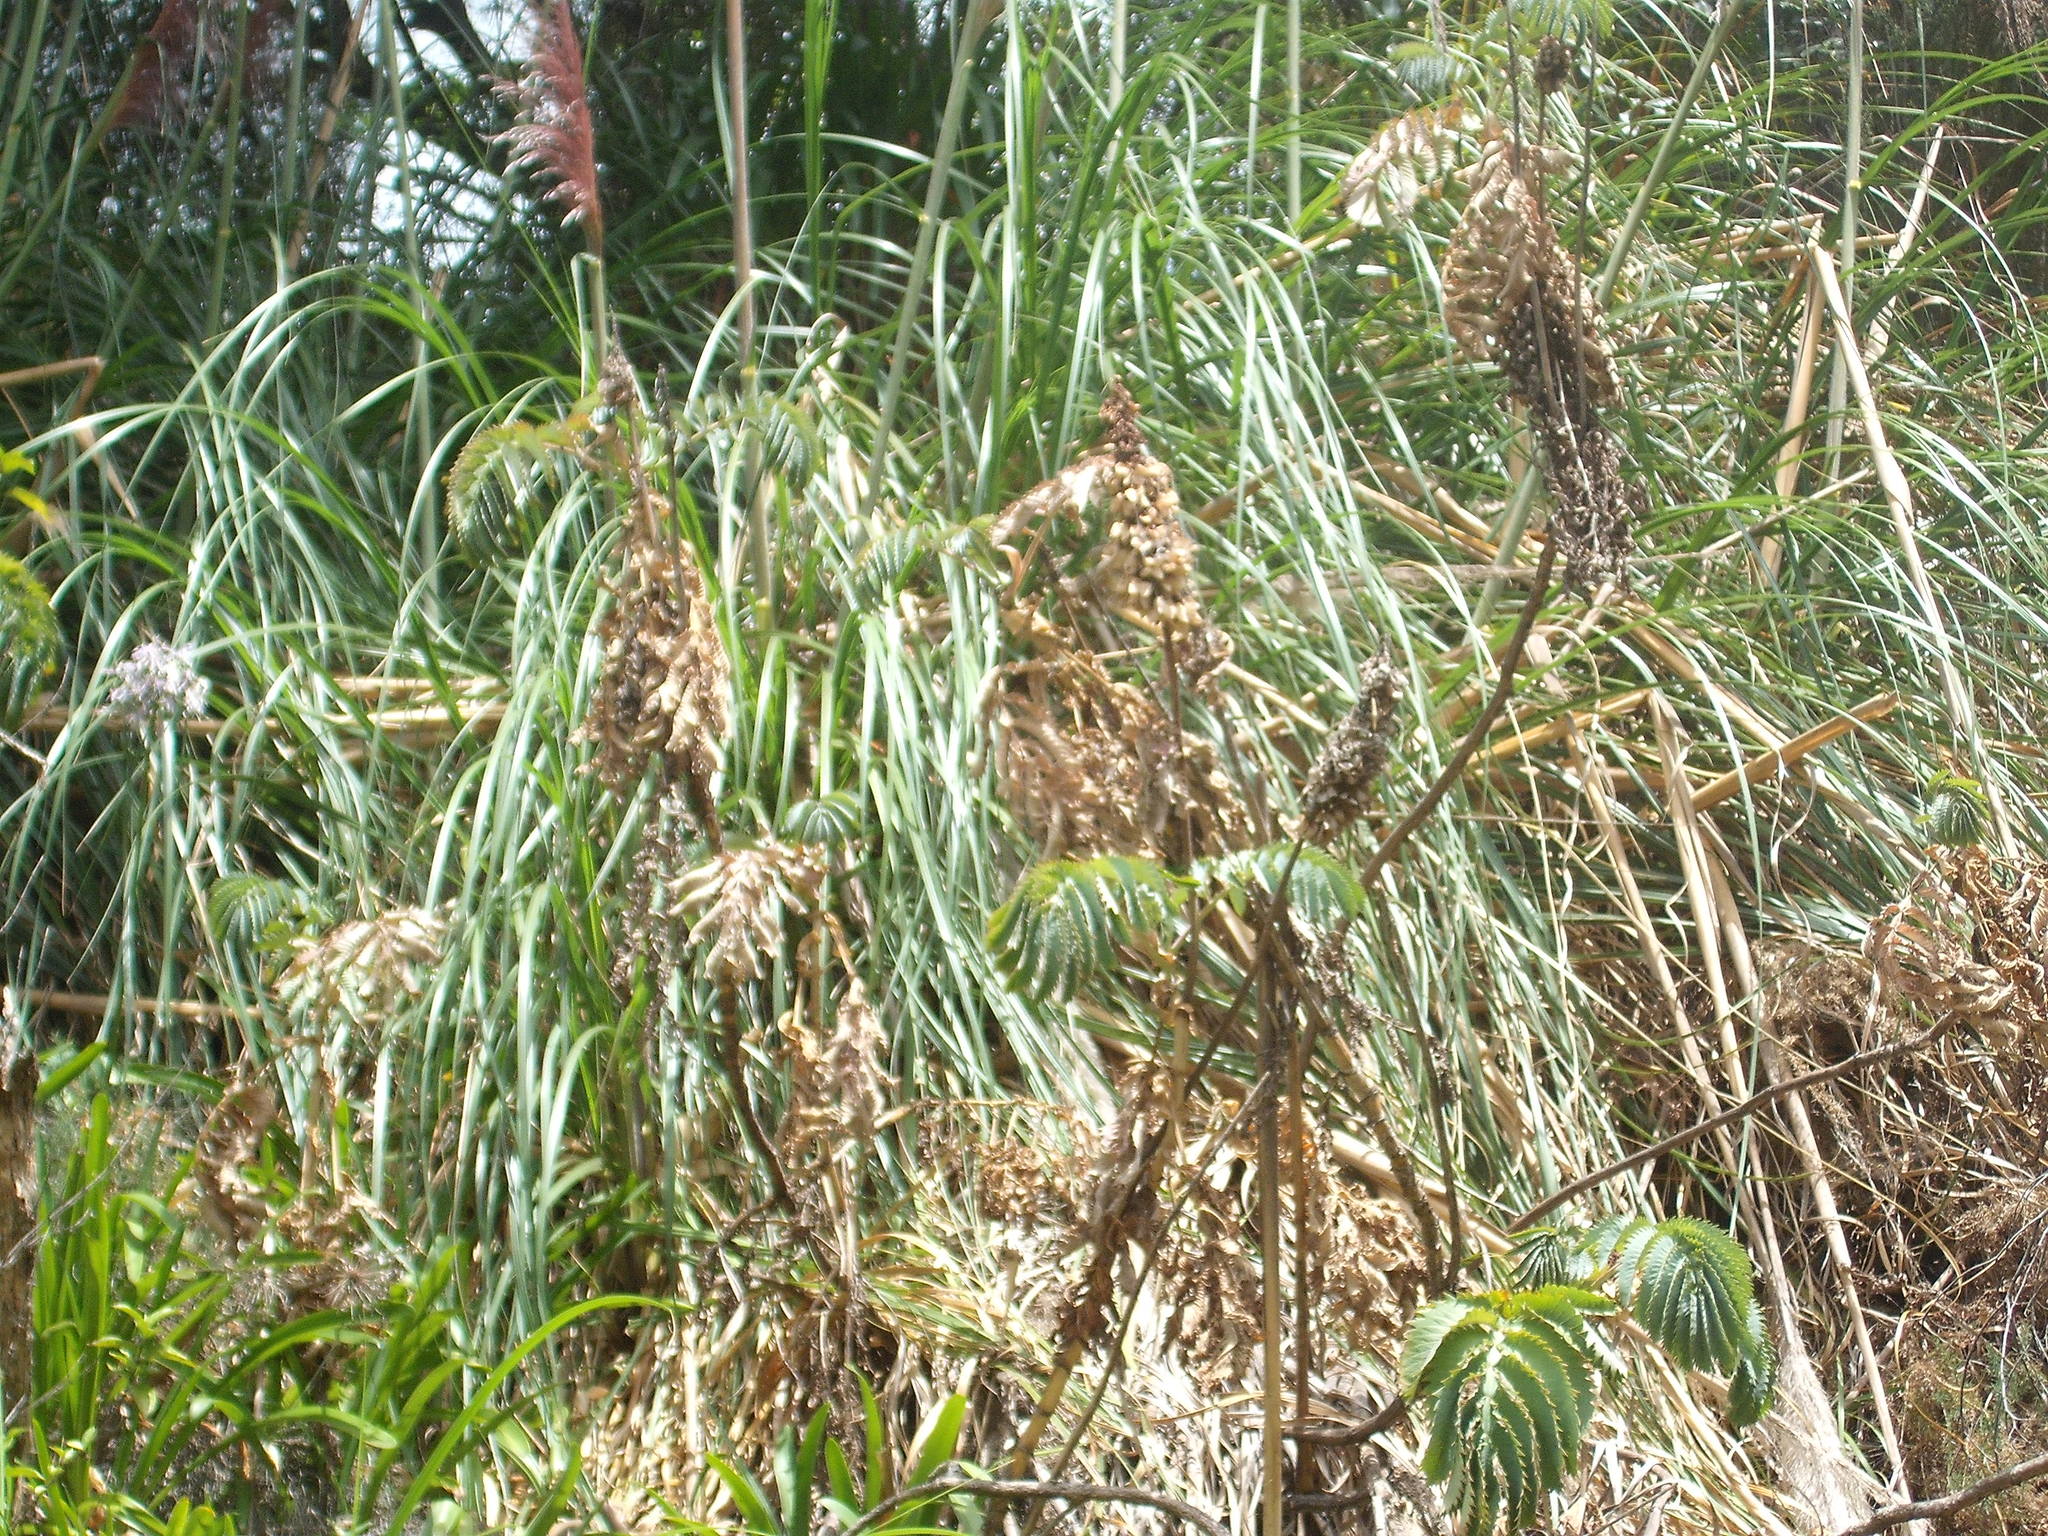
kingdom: Plantae
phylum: Tracheophyta
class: Magnoliopsida
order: Geraniales
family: Melianthaceae
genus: Melianthus
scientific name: Melianthus major
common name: Honey-flower
